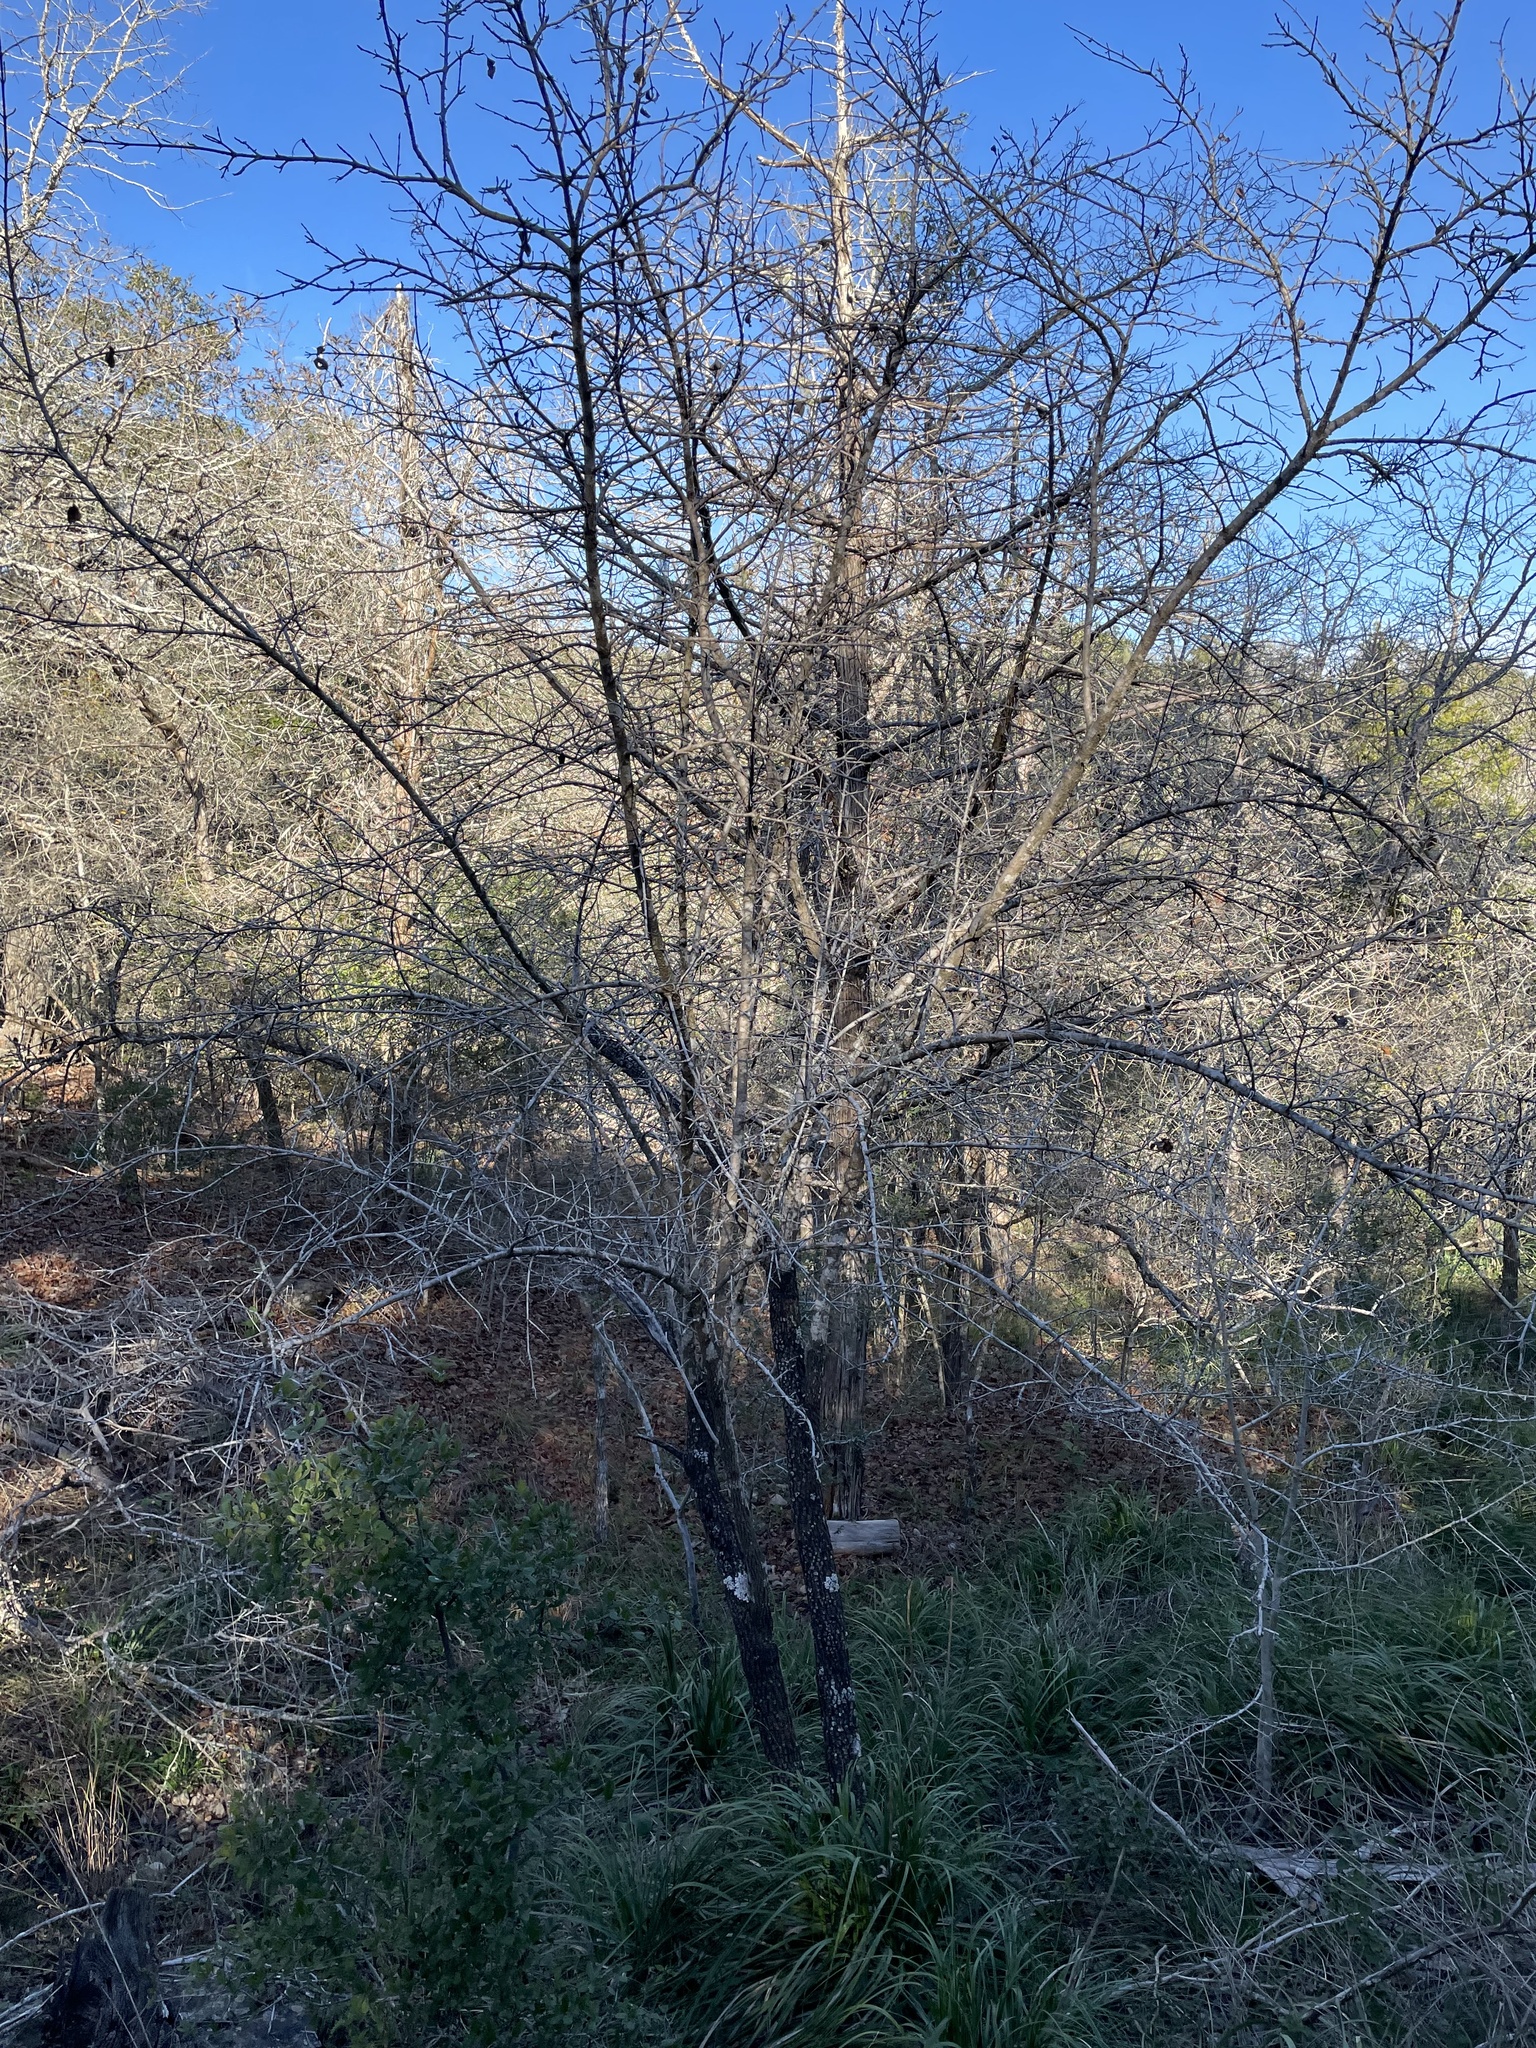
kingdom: Plantae
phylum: Tracheophyta
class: Magnoliopsida
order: Dipsacales
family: Viburnaceae
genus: Viburnum
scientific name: Viburnum rufidulum
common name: Blue haw
